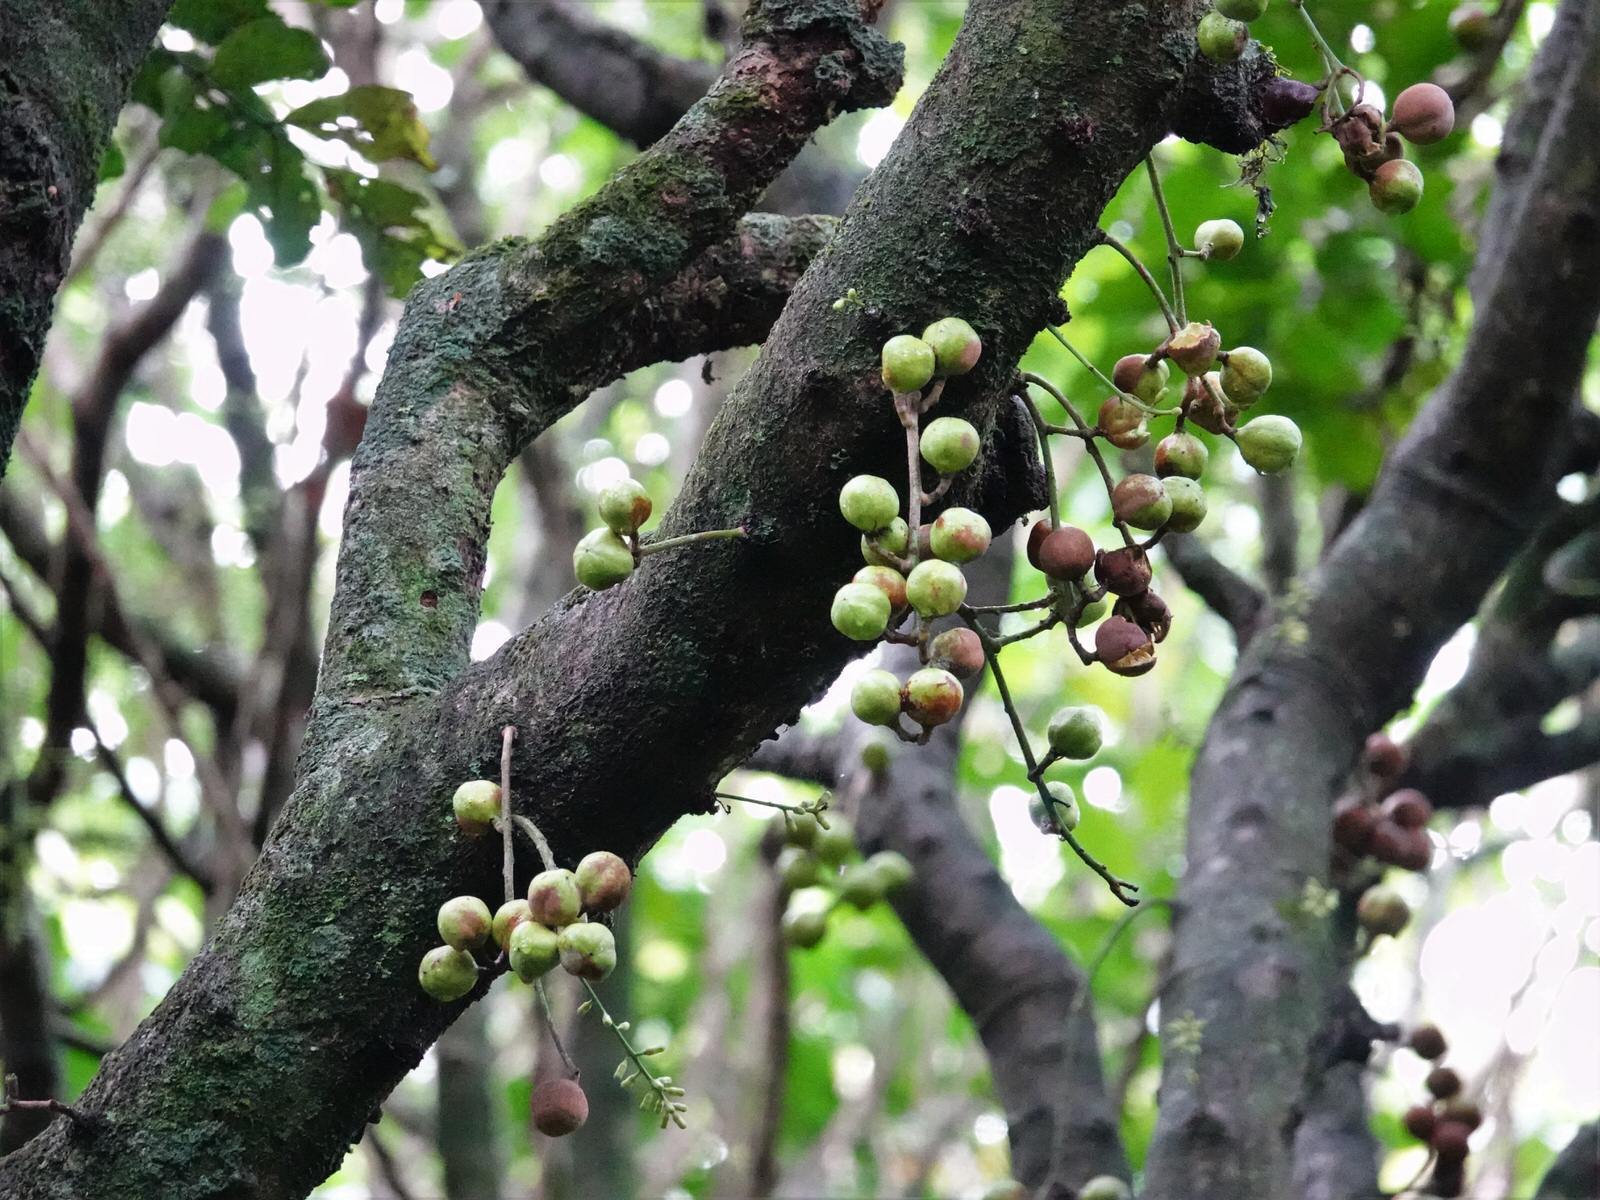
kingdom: Plantae
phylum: Tracheophyta
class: Magnoliopsida
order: Sapindales
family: Meliaceae
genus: Didymocheton
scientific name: Didymocheton spectabilis
